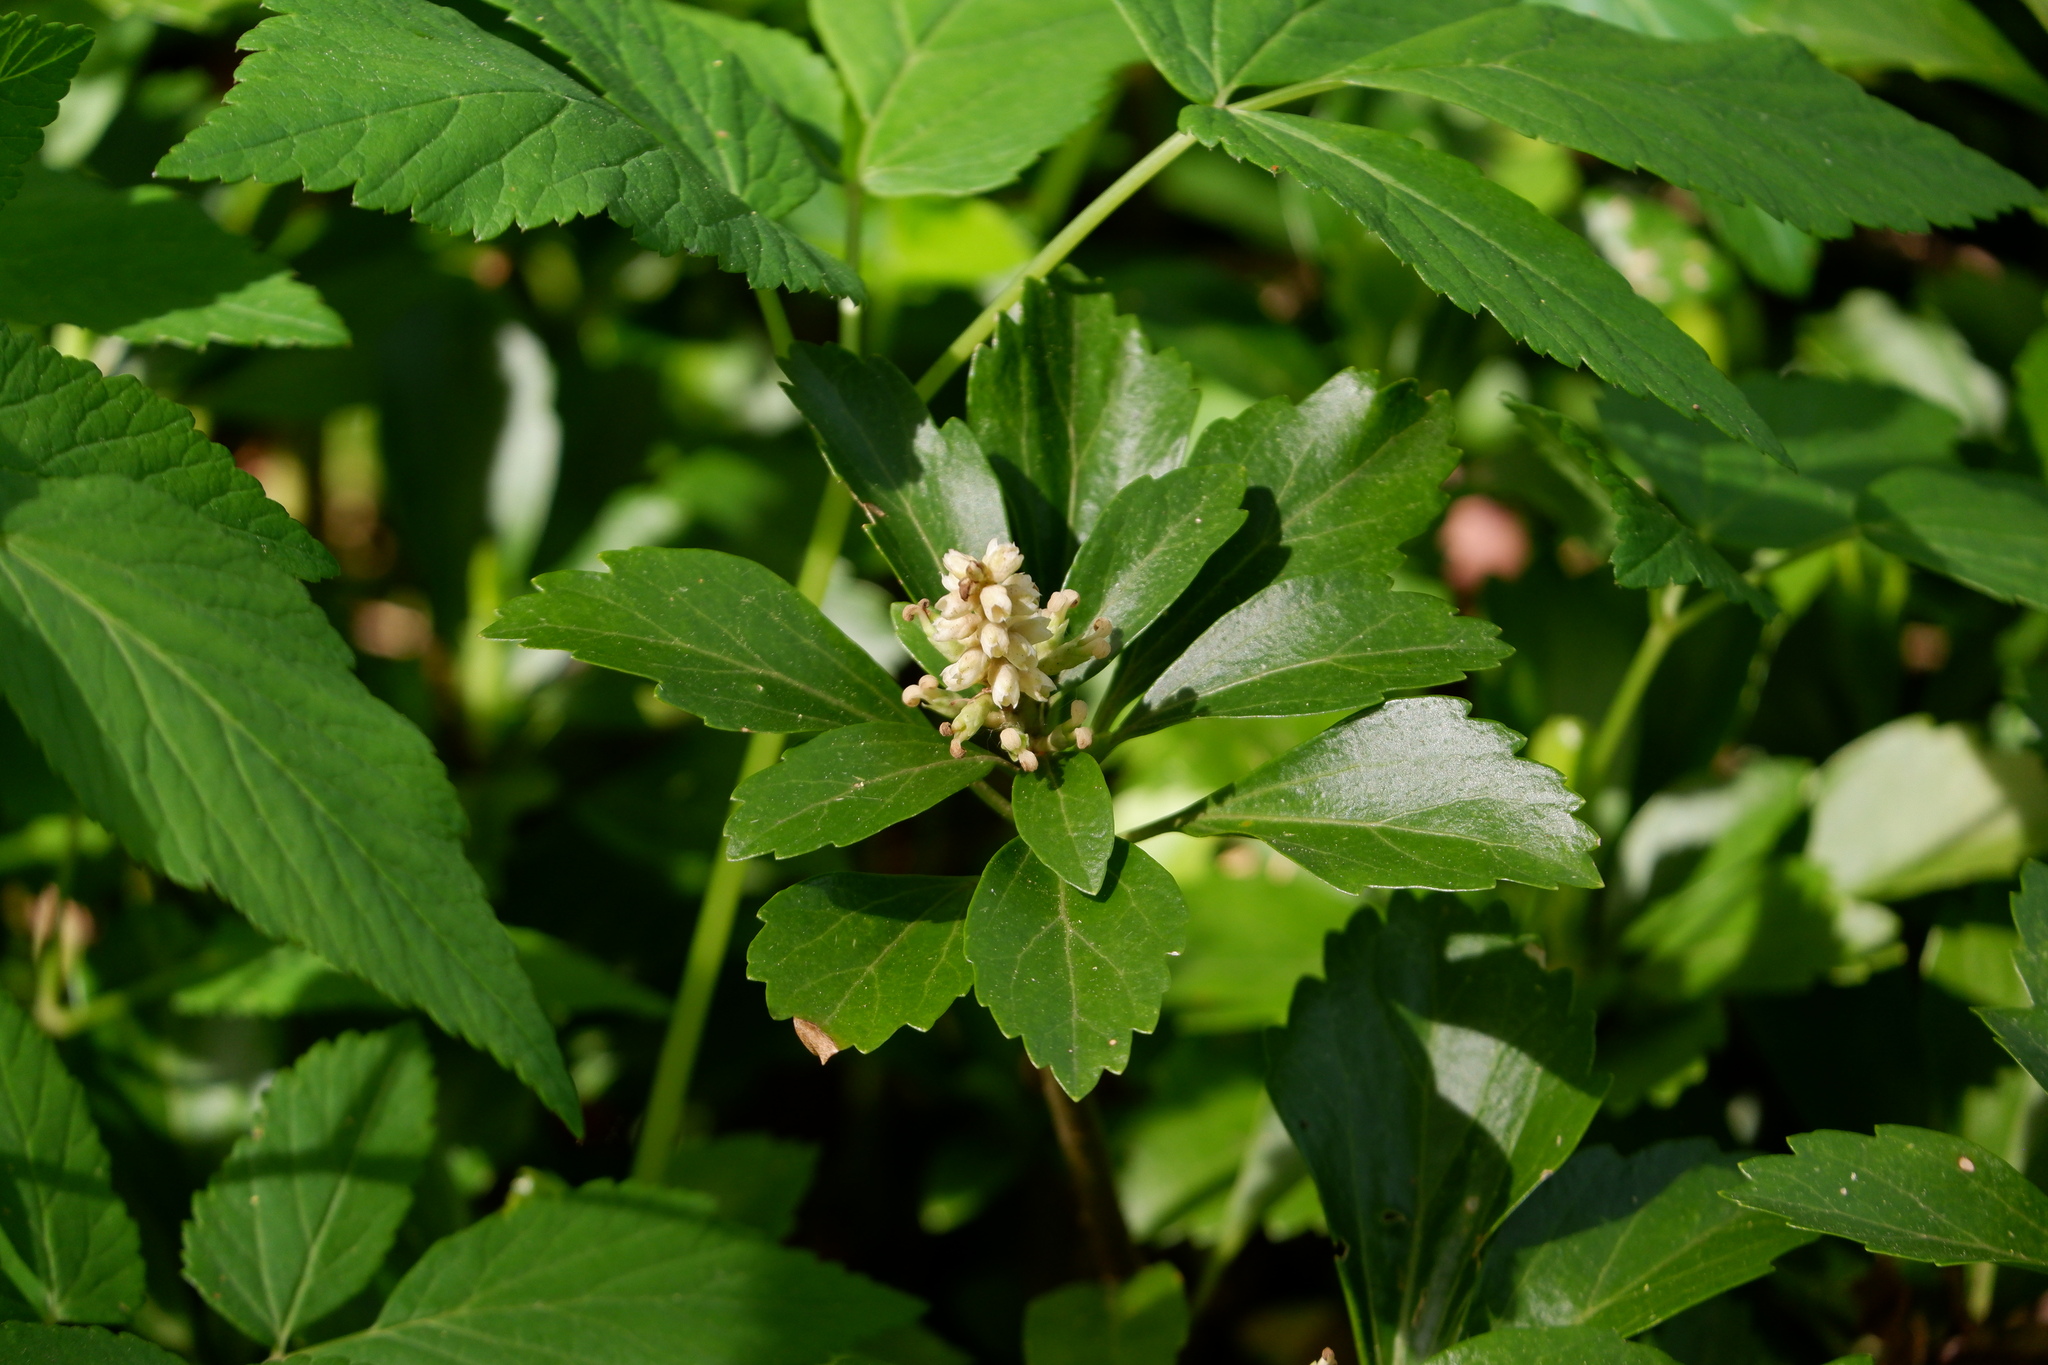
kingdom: Plantae
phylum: Tracheophyta
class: Magnoliopsida
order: Buxales
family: Buxaceae
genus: Pachysandra
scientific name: Pachysandra terminalis
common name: Japanese pachysandra
